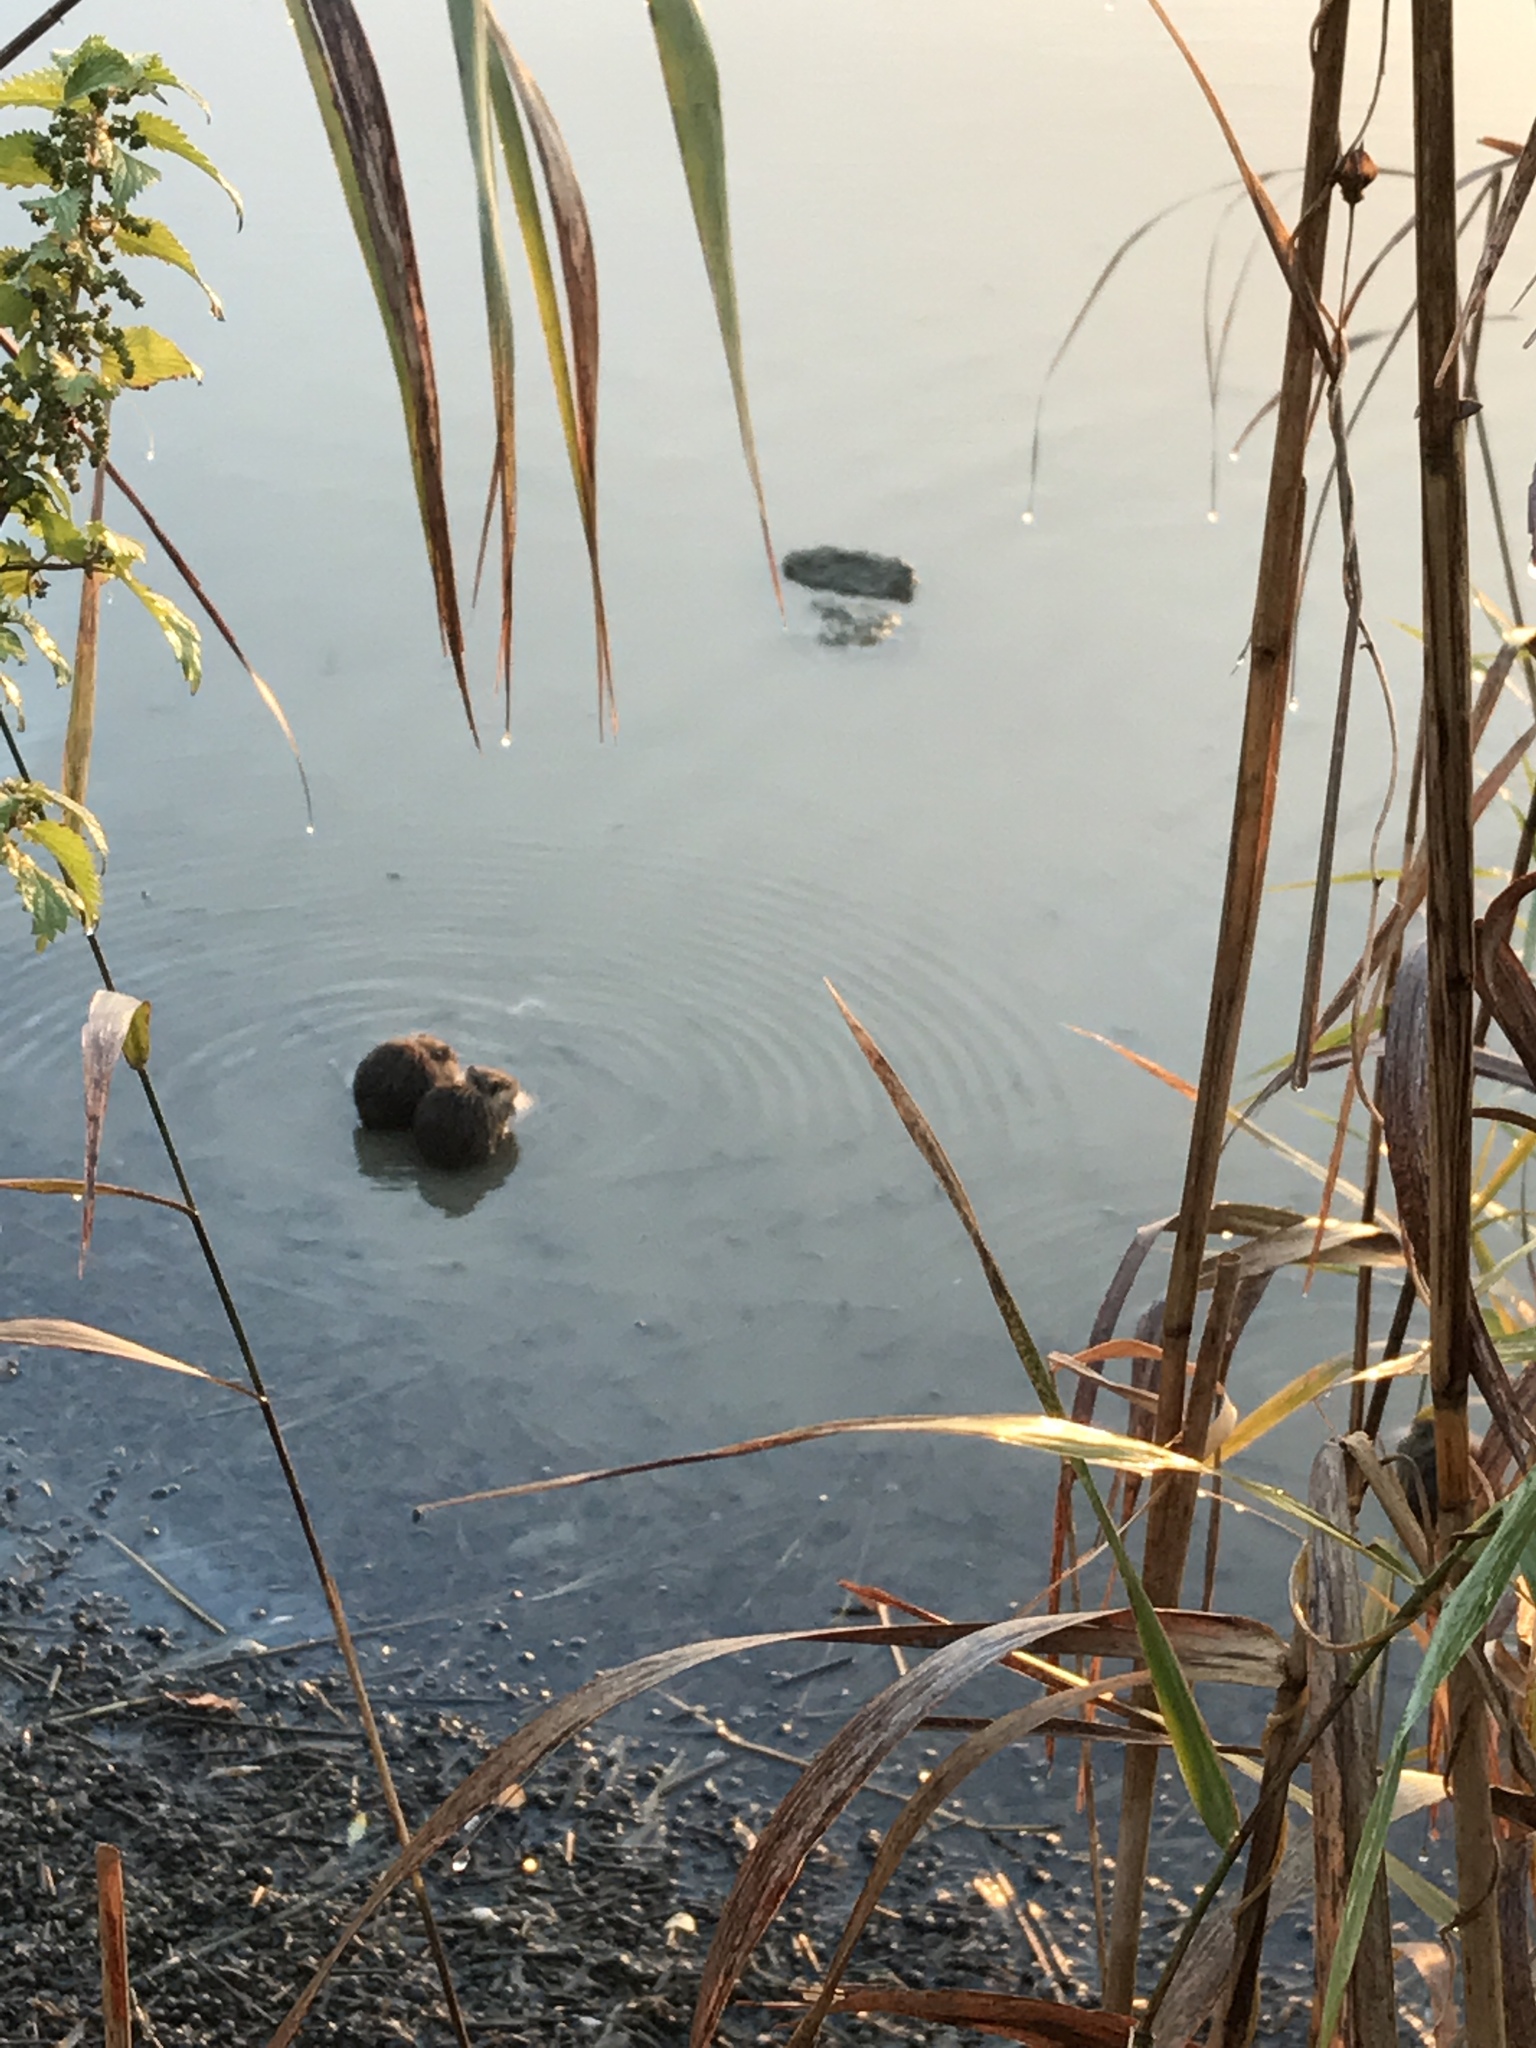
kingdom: Animalia
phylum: Chordata
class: Mammalia
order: Rodentia
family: Myocastoridae
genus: Myocastor
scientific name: Myocastor coypus
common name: Coypu
